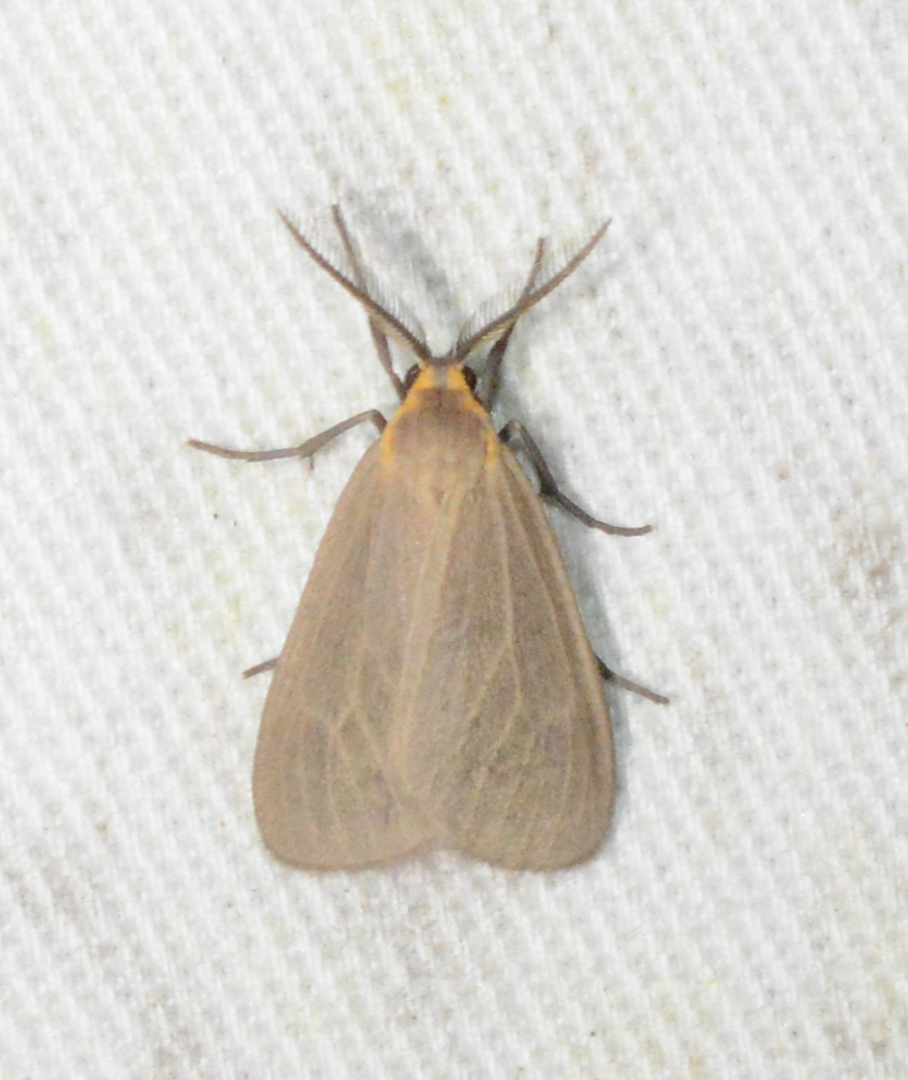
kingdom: Animalia
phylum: Arthropoda
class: Insecta
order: Lepidoptera
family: Erebidae
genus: Pagara
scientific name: Pagara simplex
